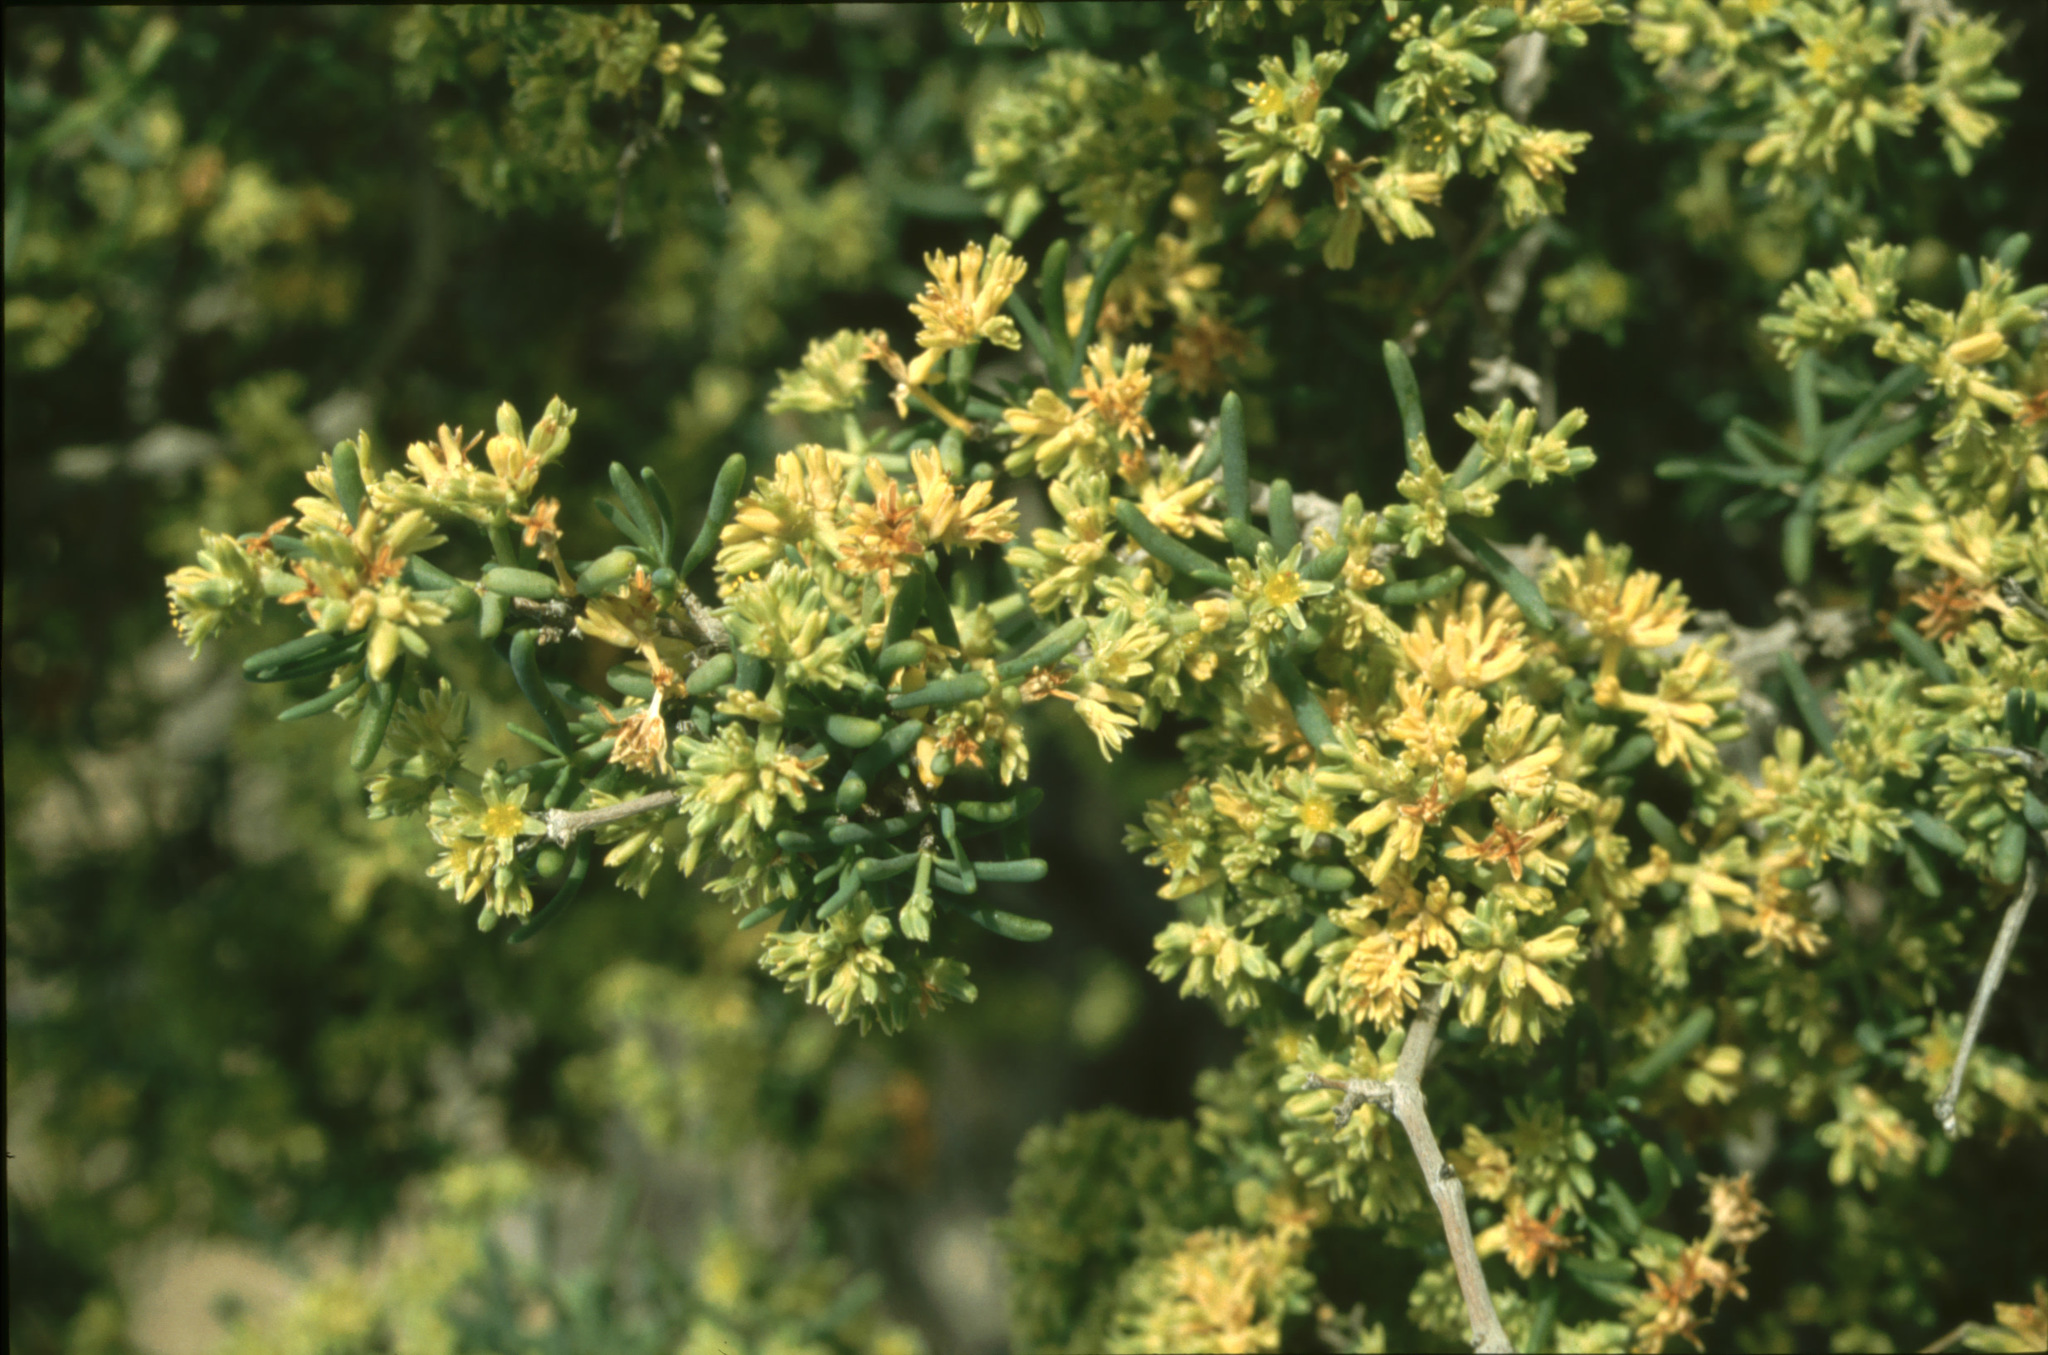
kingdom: Plantae
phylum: Tracheophyta
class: Magnoliopsida
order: Caryophyllales
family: Caryophyllaceae
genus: Gymnocarpos
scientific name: Gymnocarpos decander
